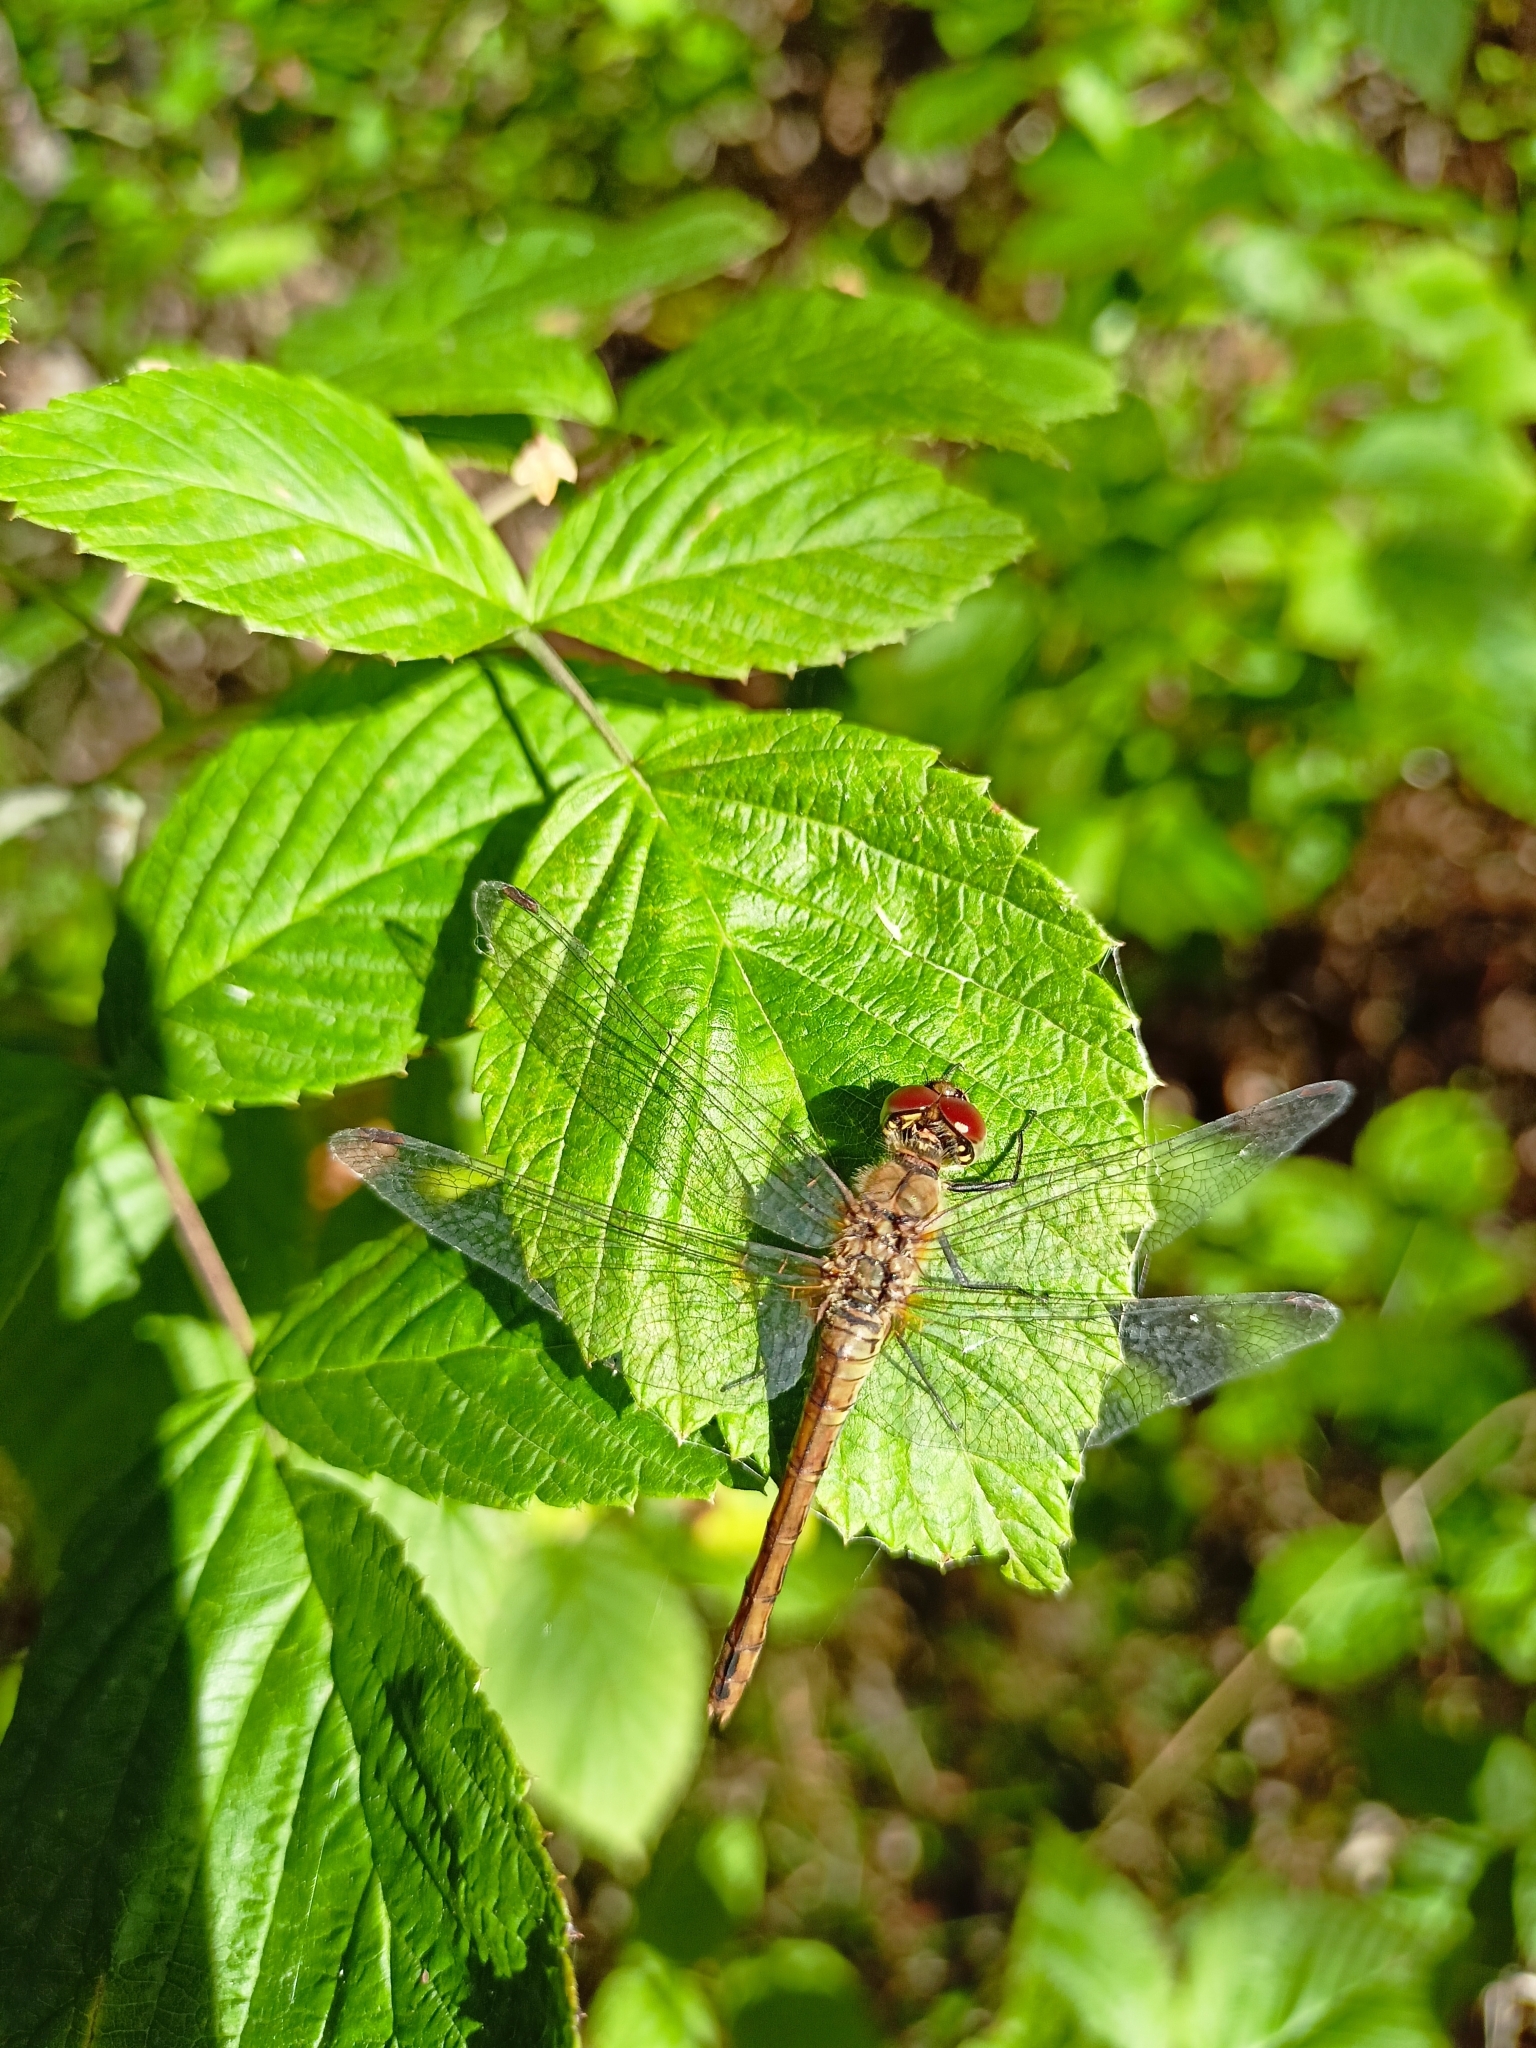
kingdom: Animalia
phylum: Arthropoda
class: Insecta
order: Odonata
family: Libellulidae
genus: Sympetrum
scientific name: Sympetrum sanguineum
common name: Ruddy darter
